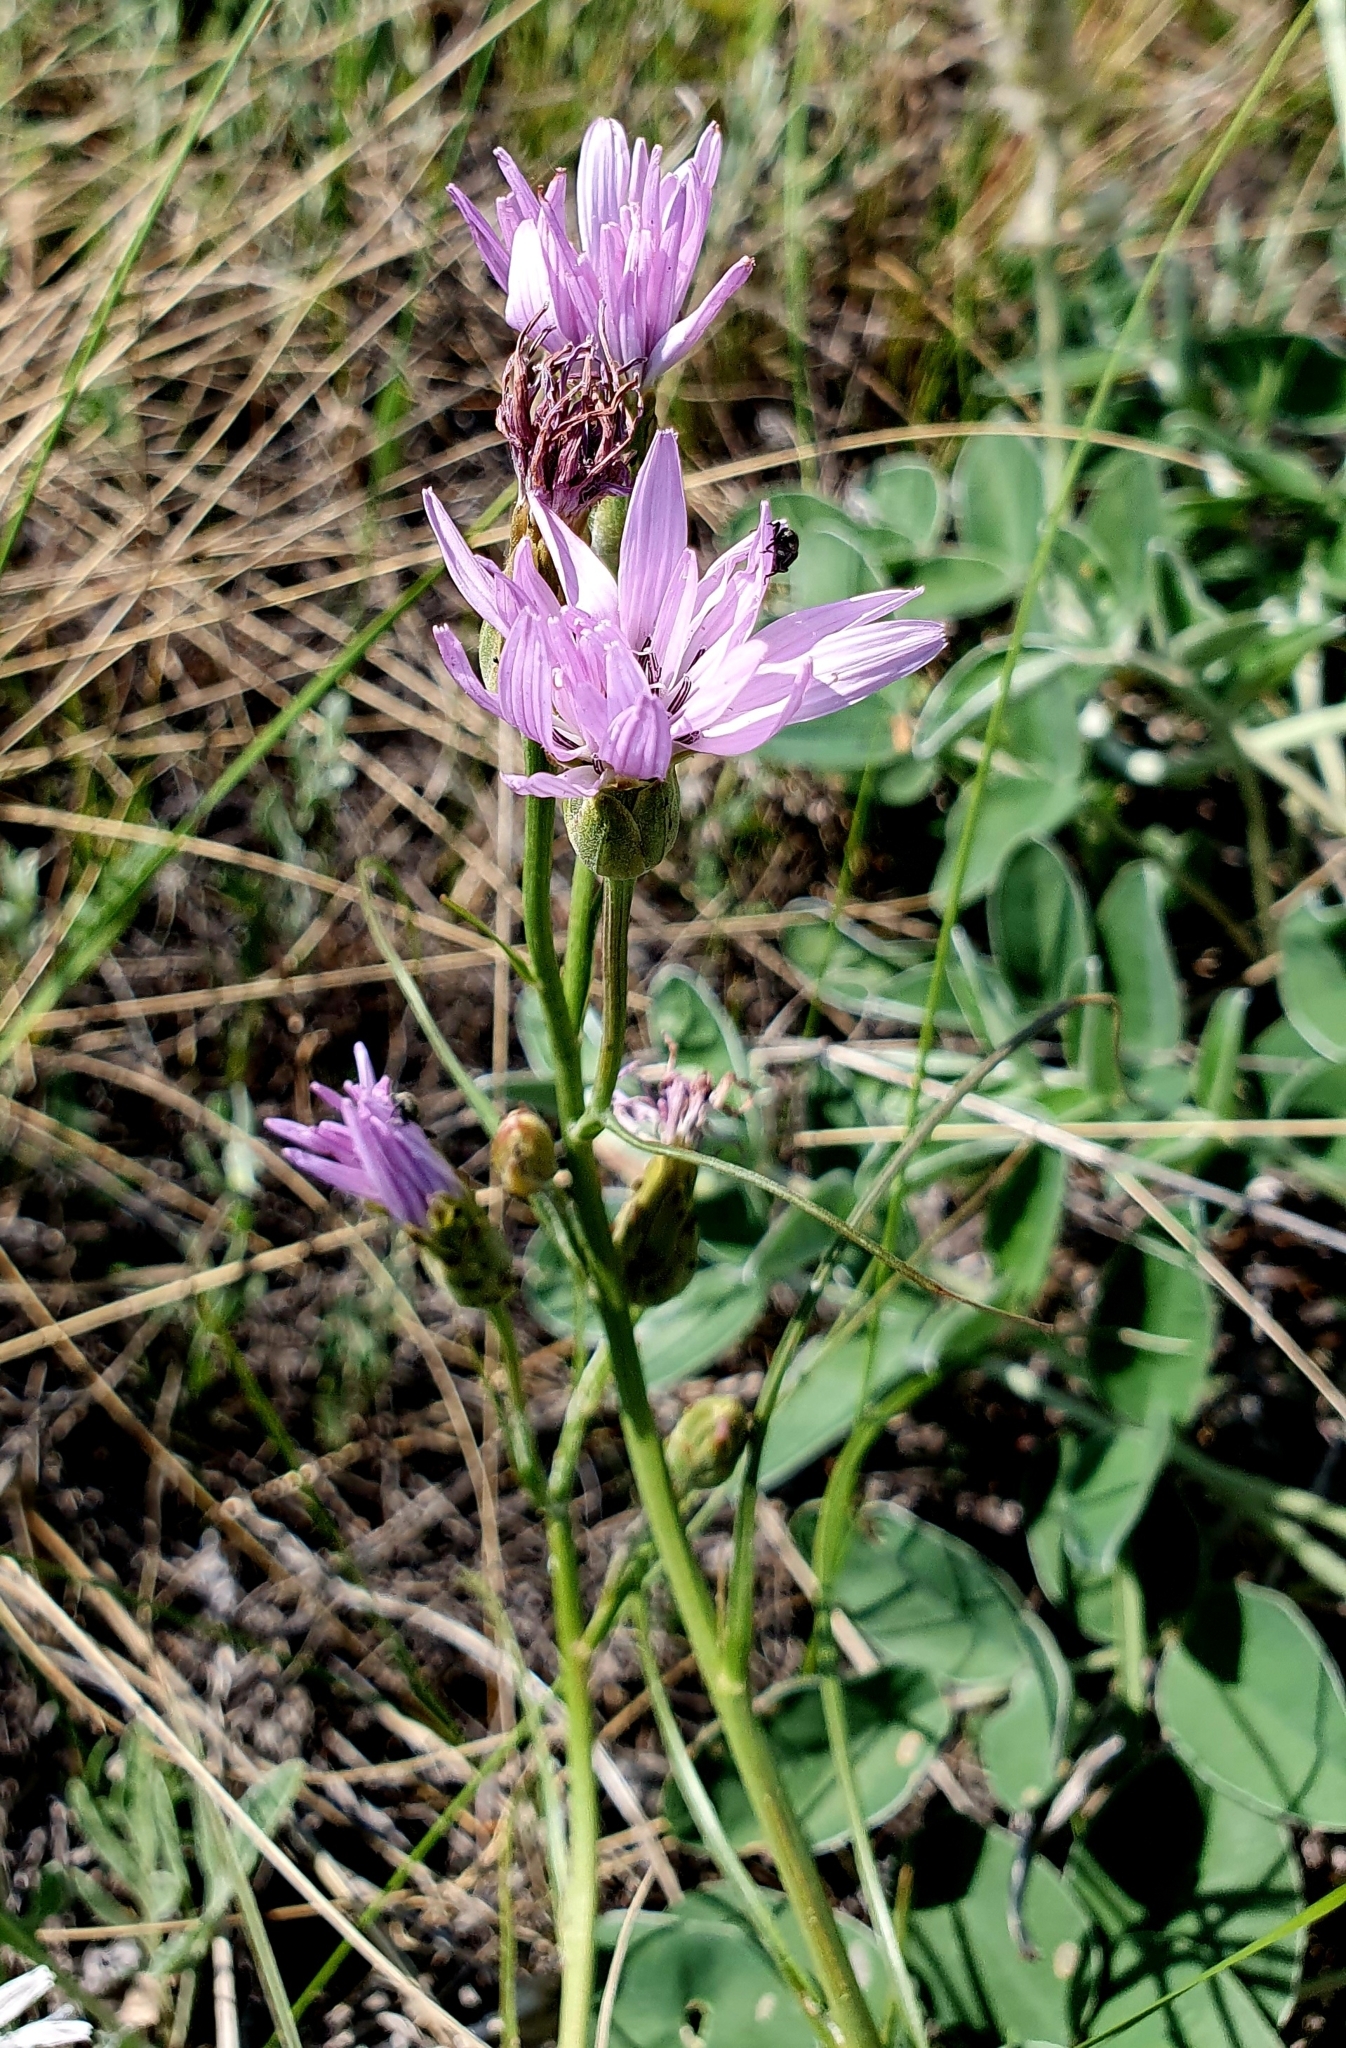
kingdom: Plantae
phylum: Tracheophyta
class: Magnoliopsida
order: Asterales
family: Asteraceae
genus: Scorzonera
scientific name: Scorzonera purpurea
